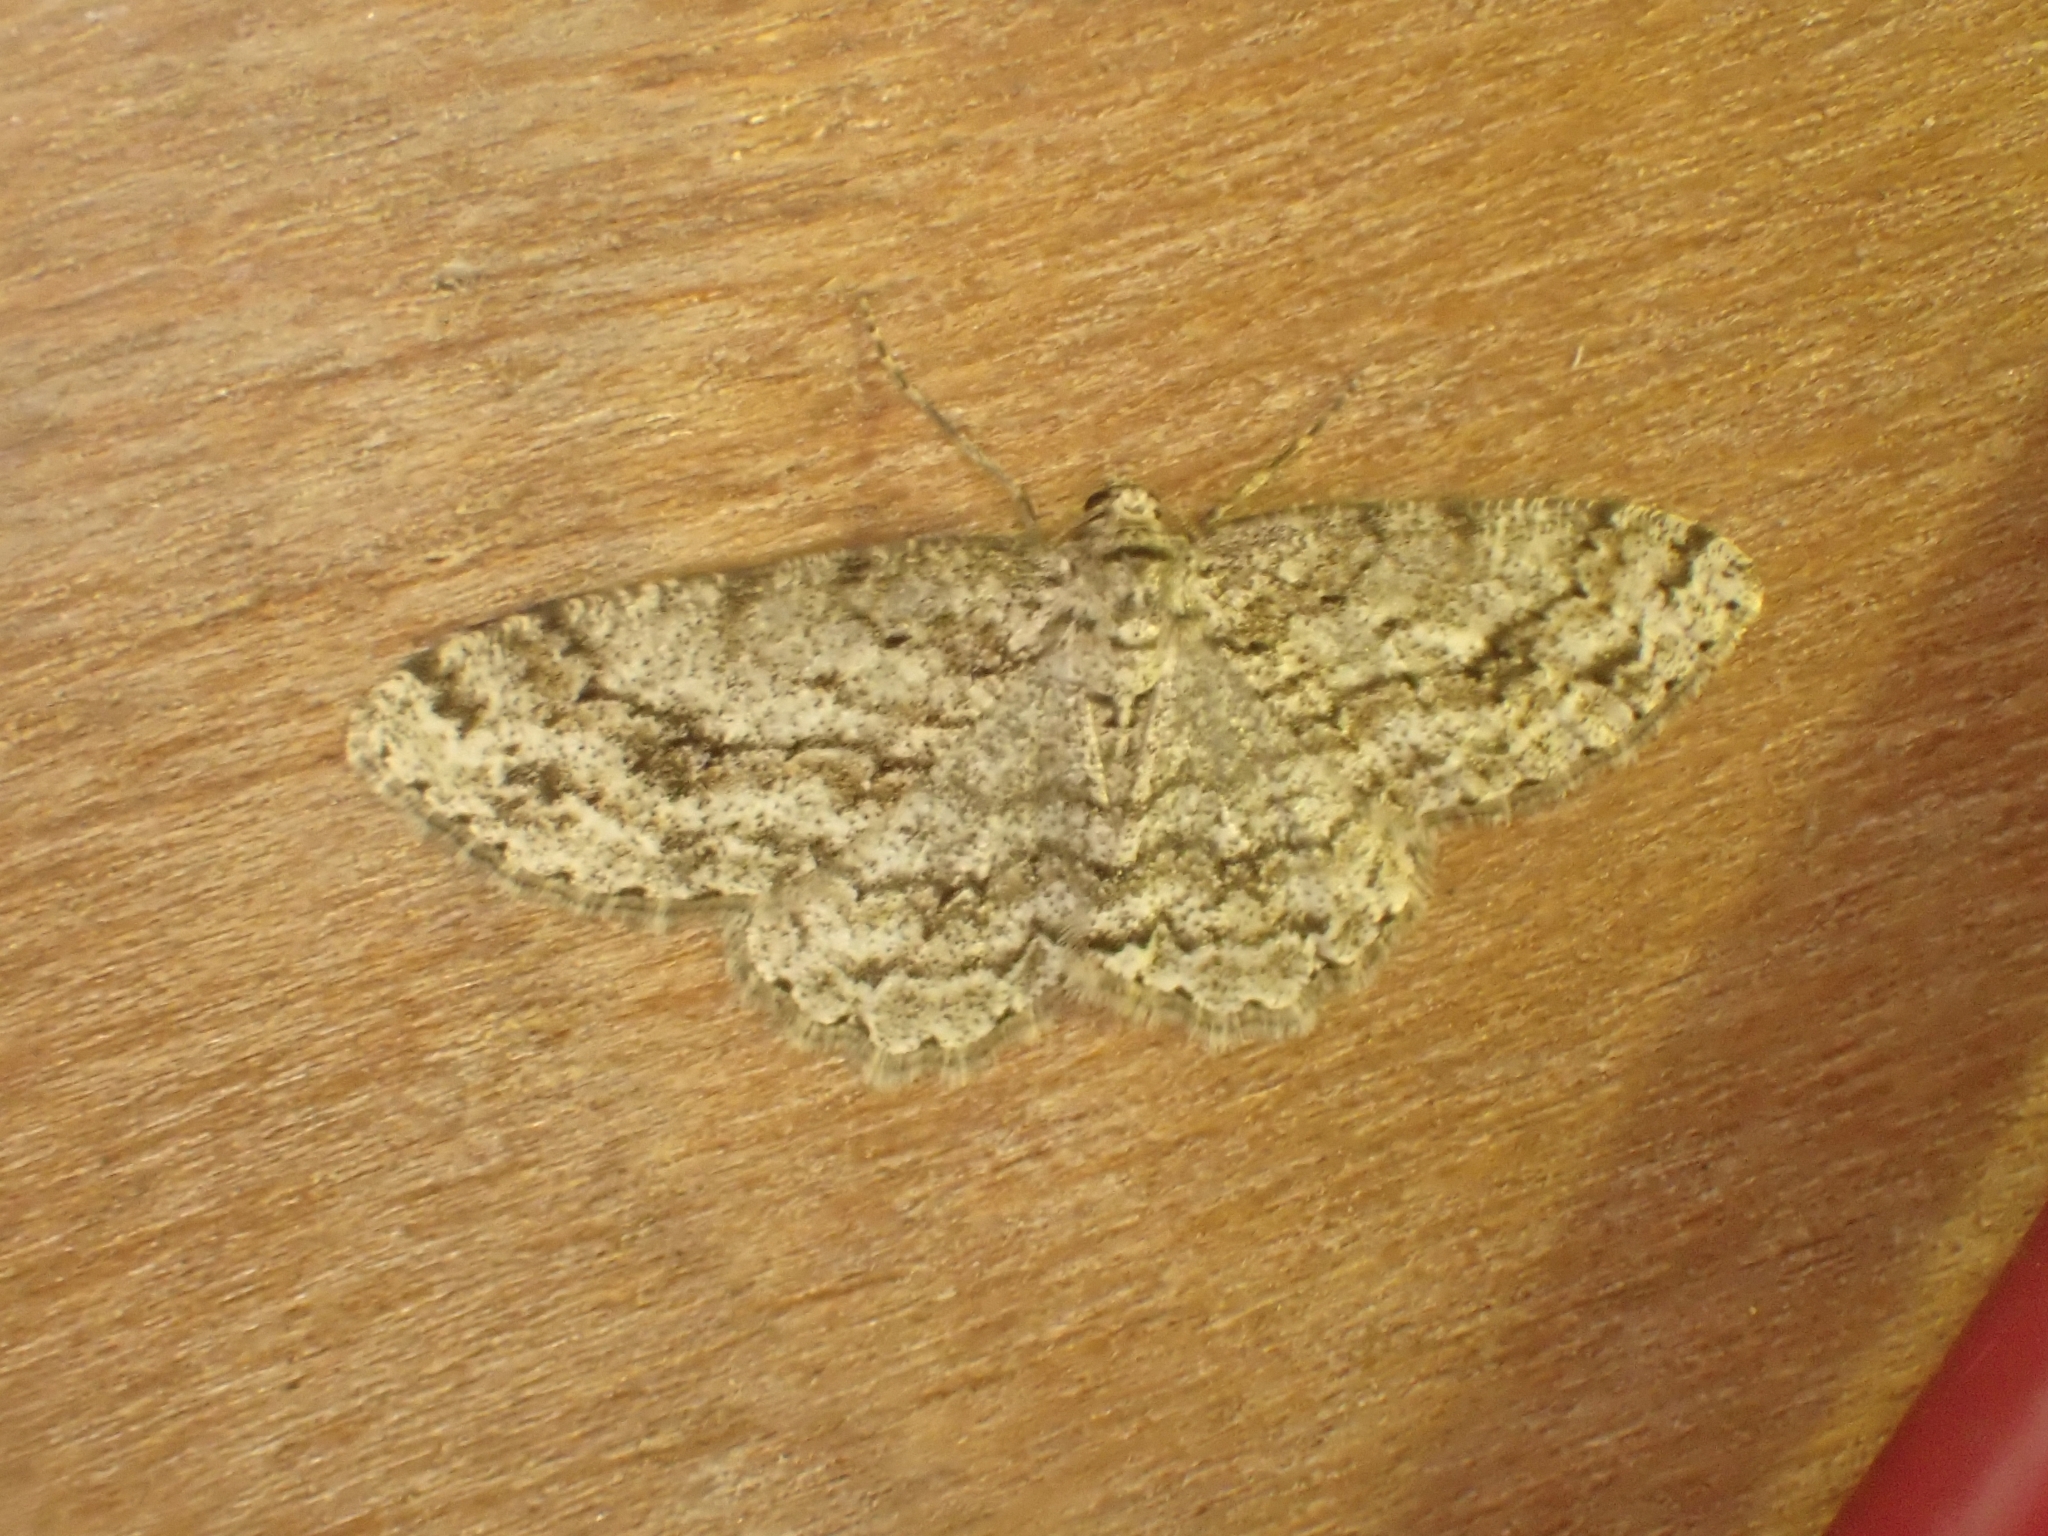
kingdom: Animalia
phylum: Arthropoda
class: Insecta
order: Lepidoptera
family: Geometridae
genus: Ectropis
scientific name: Ectropis crepuscularia
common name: Engrailed
